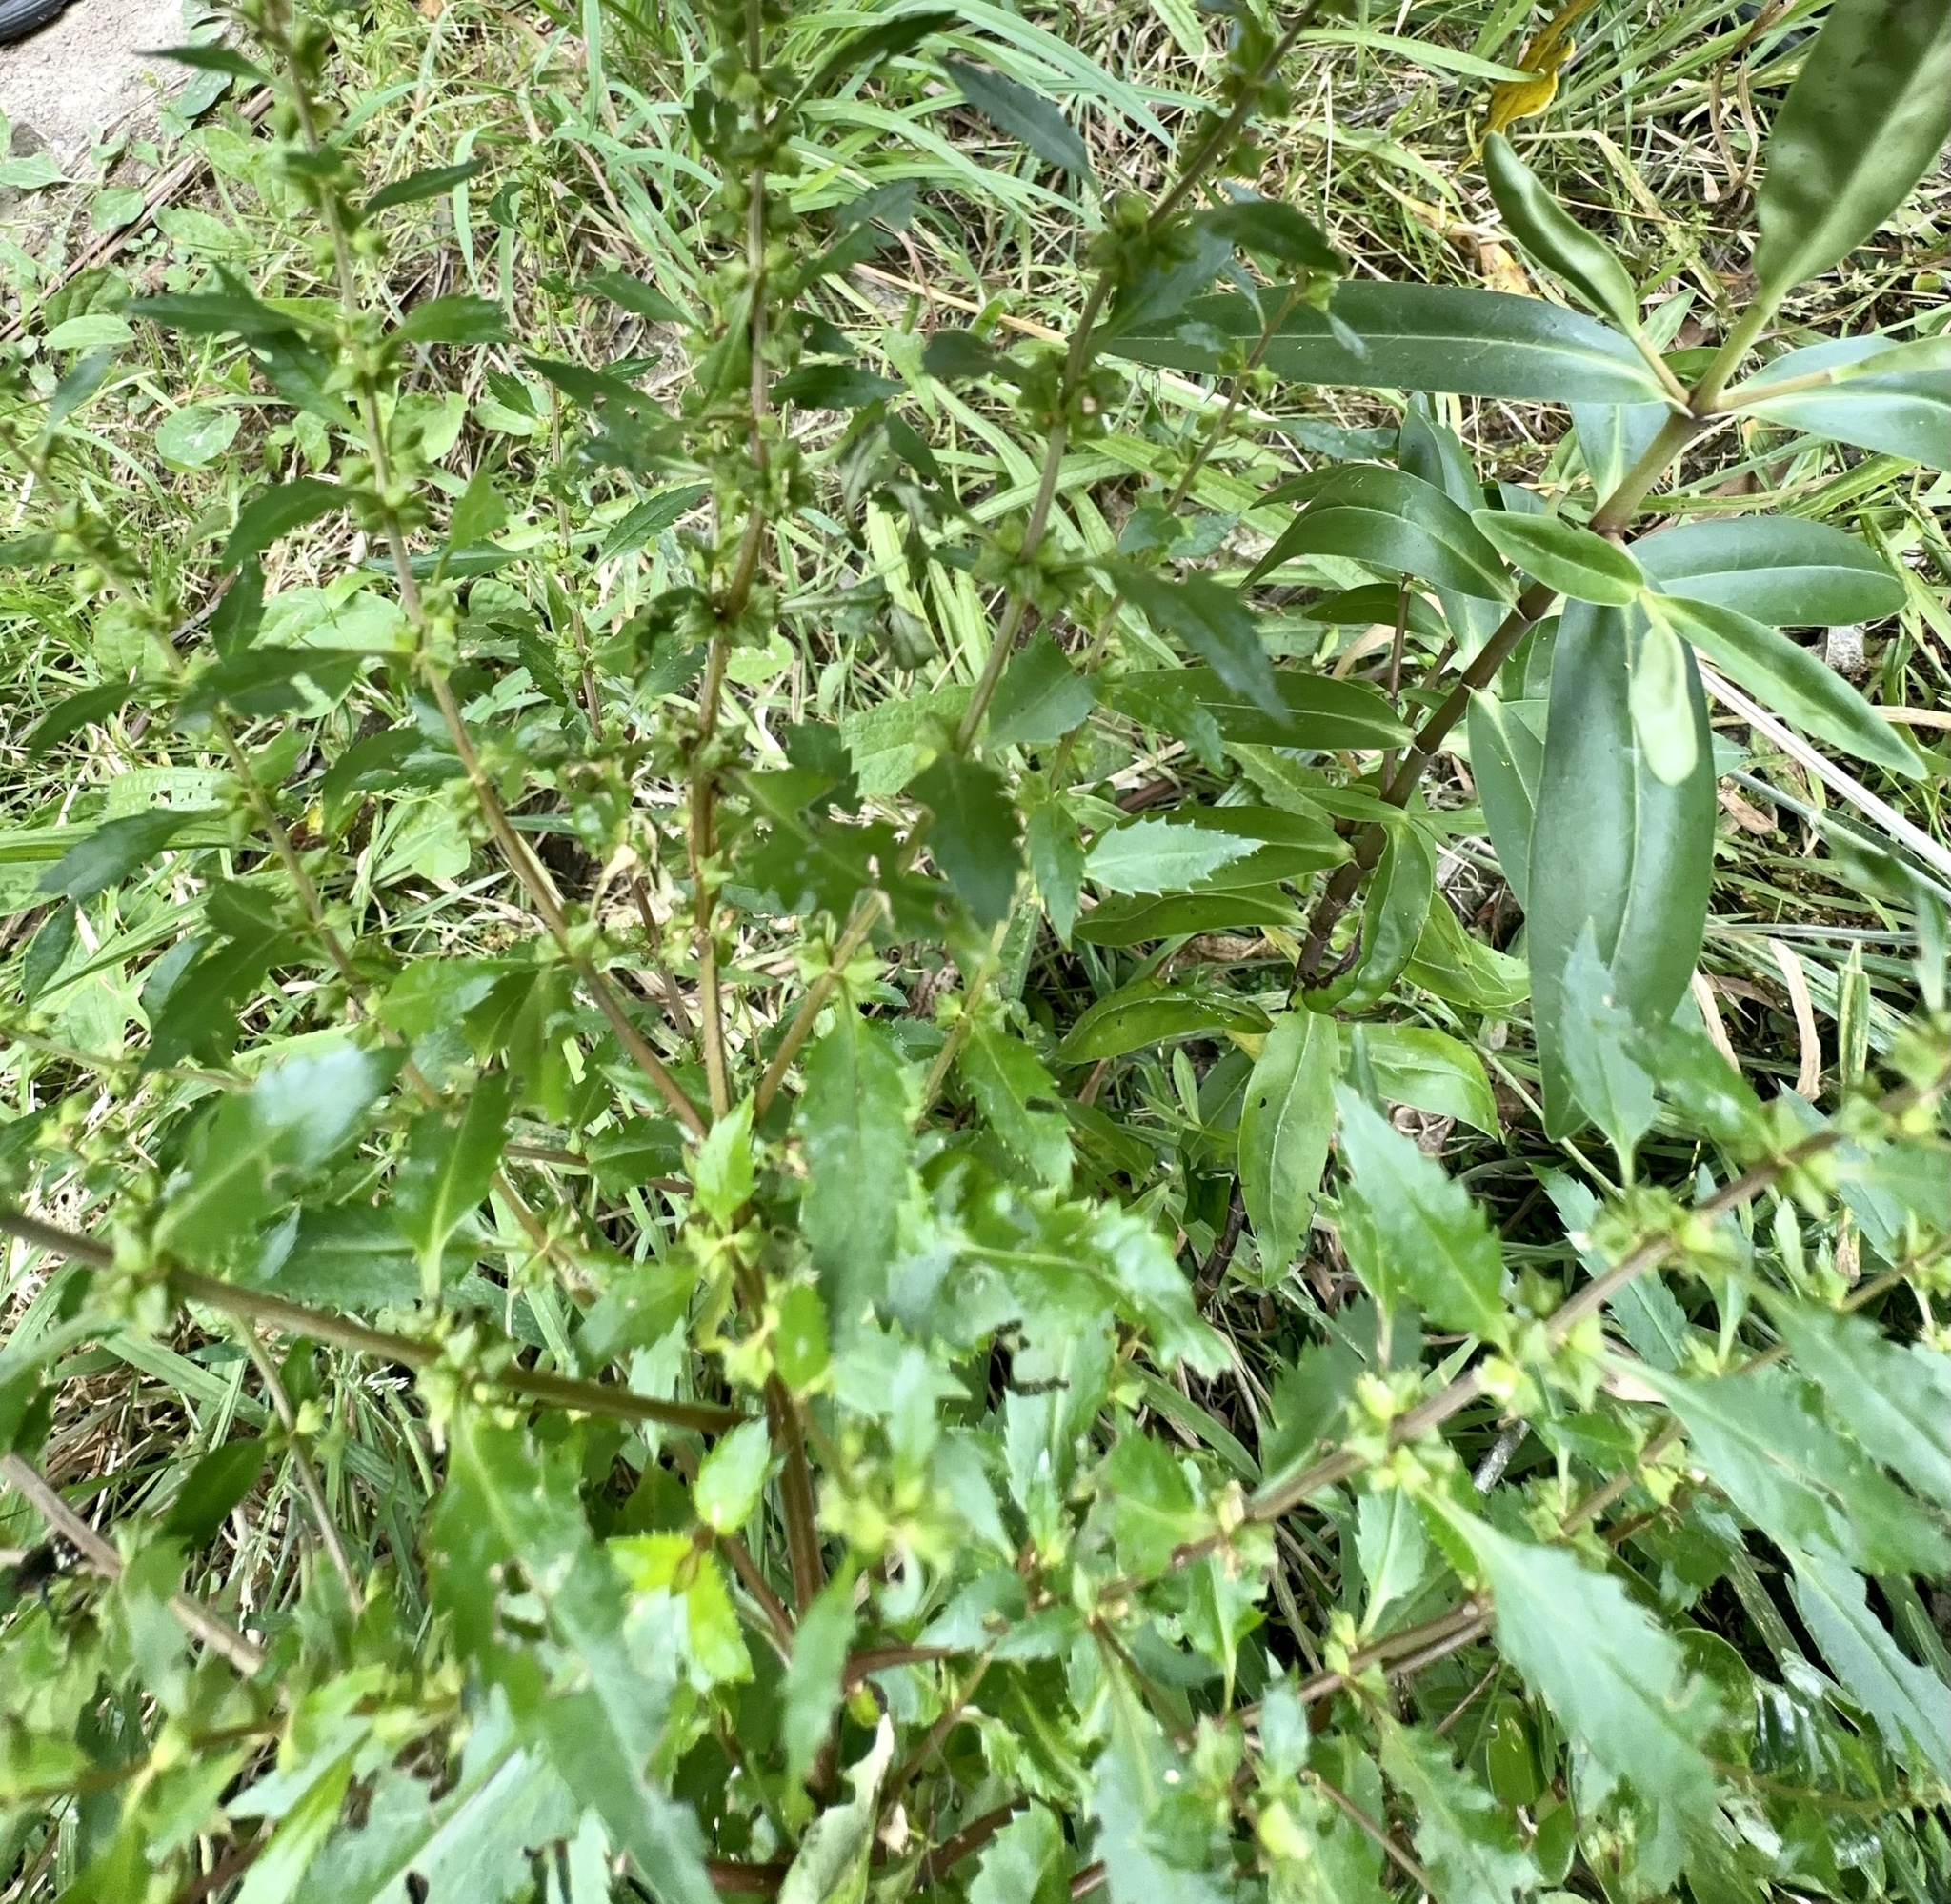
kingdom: Plantae
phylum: Tracheophyta
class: Magnoliopsida
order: Saxifragales
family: Haloragaceae
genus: Haloragis
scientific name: Haloragis erecta
